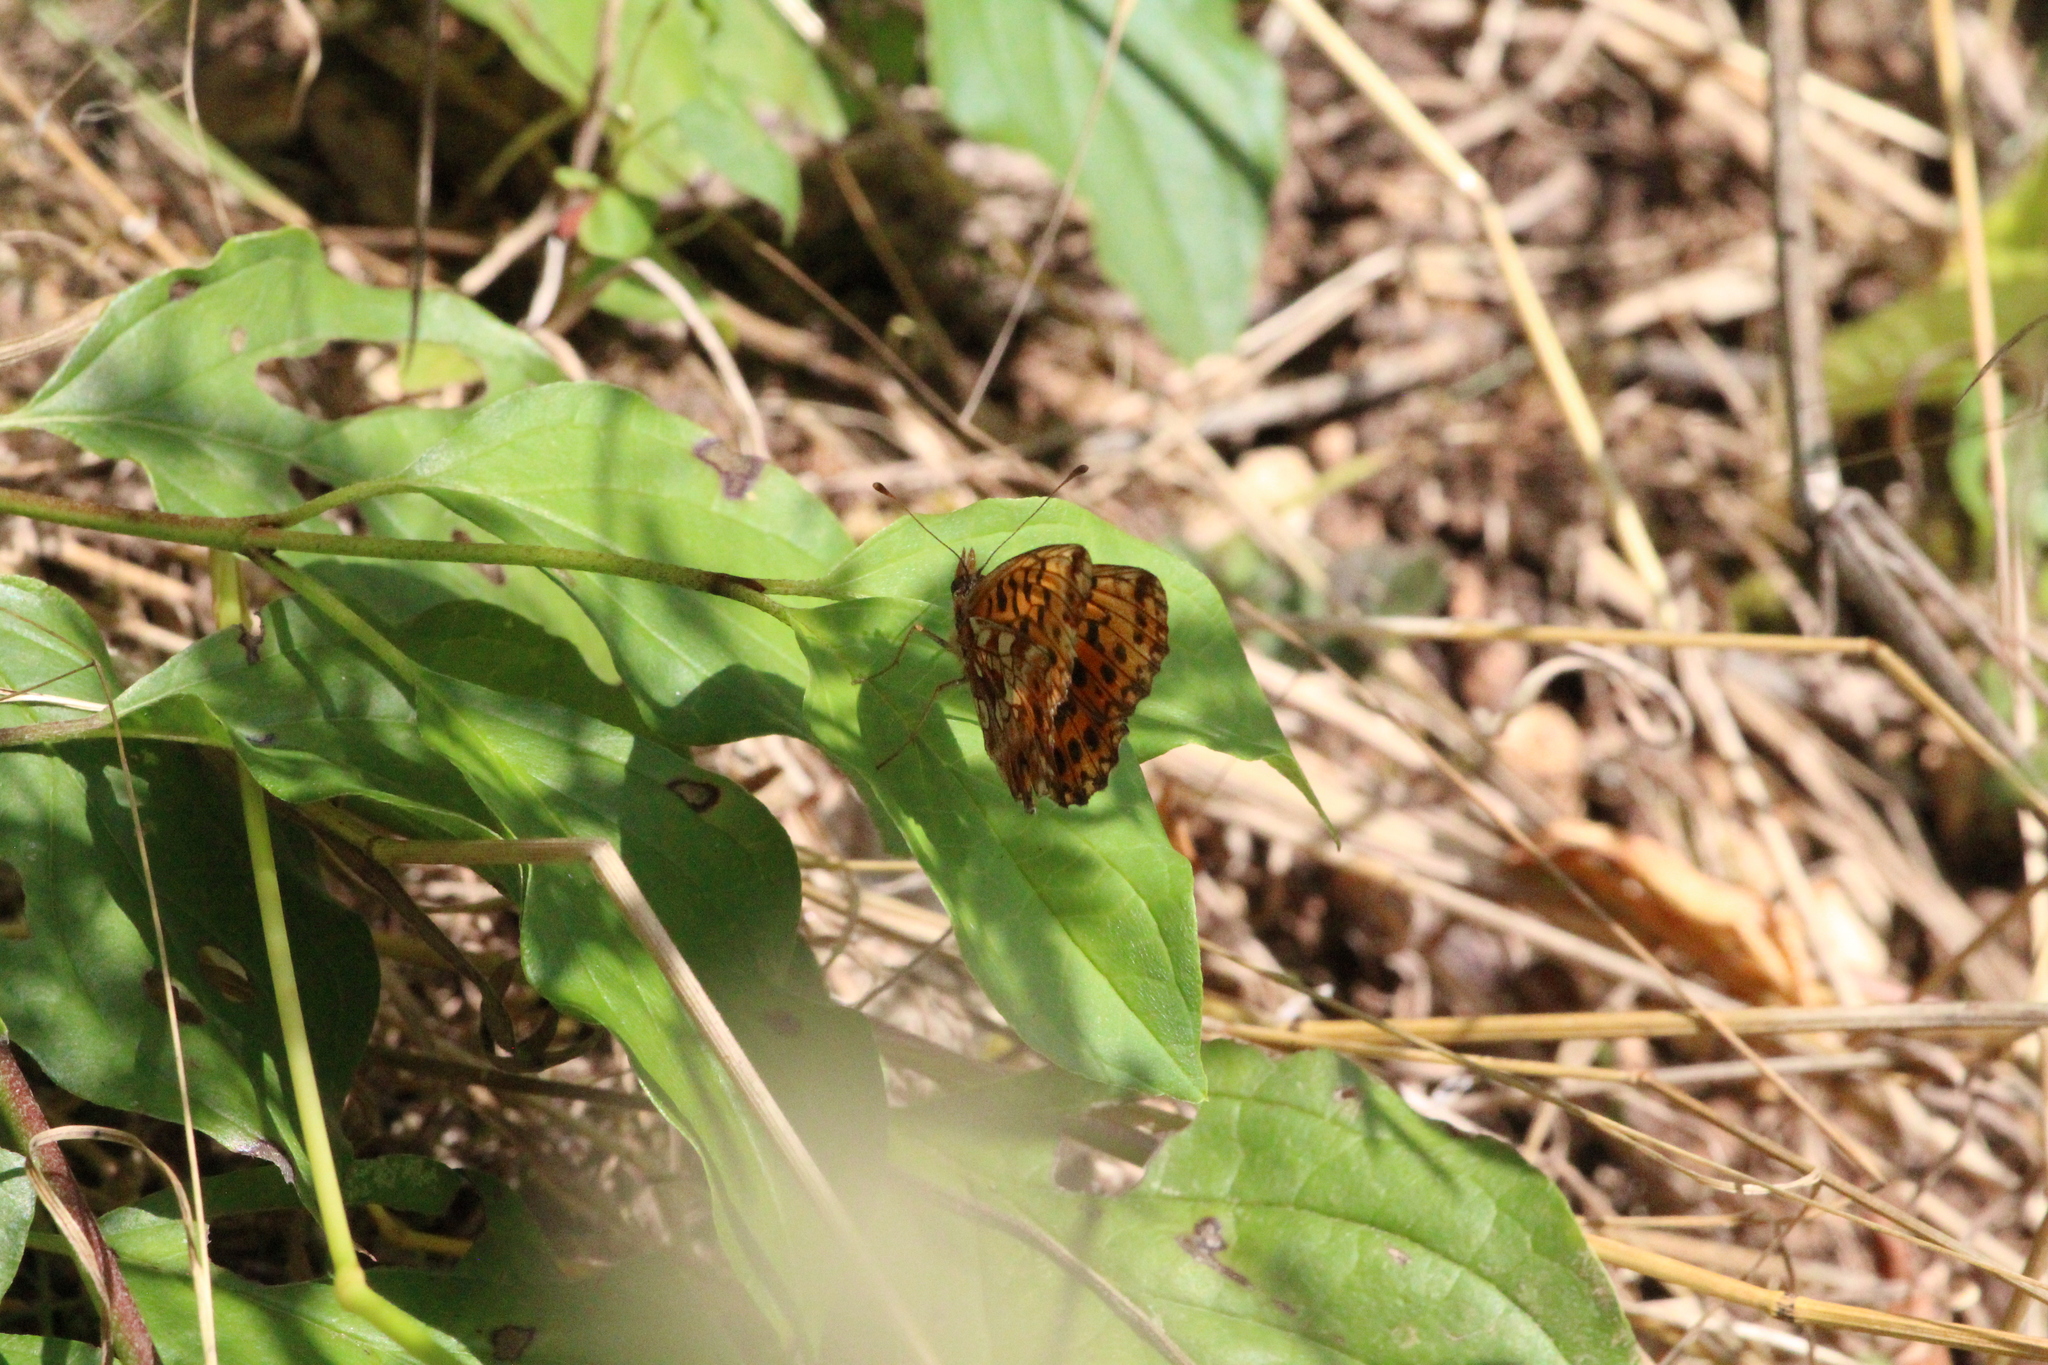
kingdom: Animalia
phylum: Arthropoda
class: Insecta
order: Lepidoptera
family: Nymphalidae
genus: Boloria
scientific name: Boloria dia
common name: Weaver's fritillary
